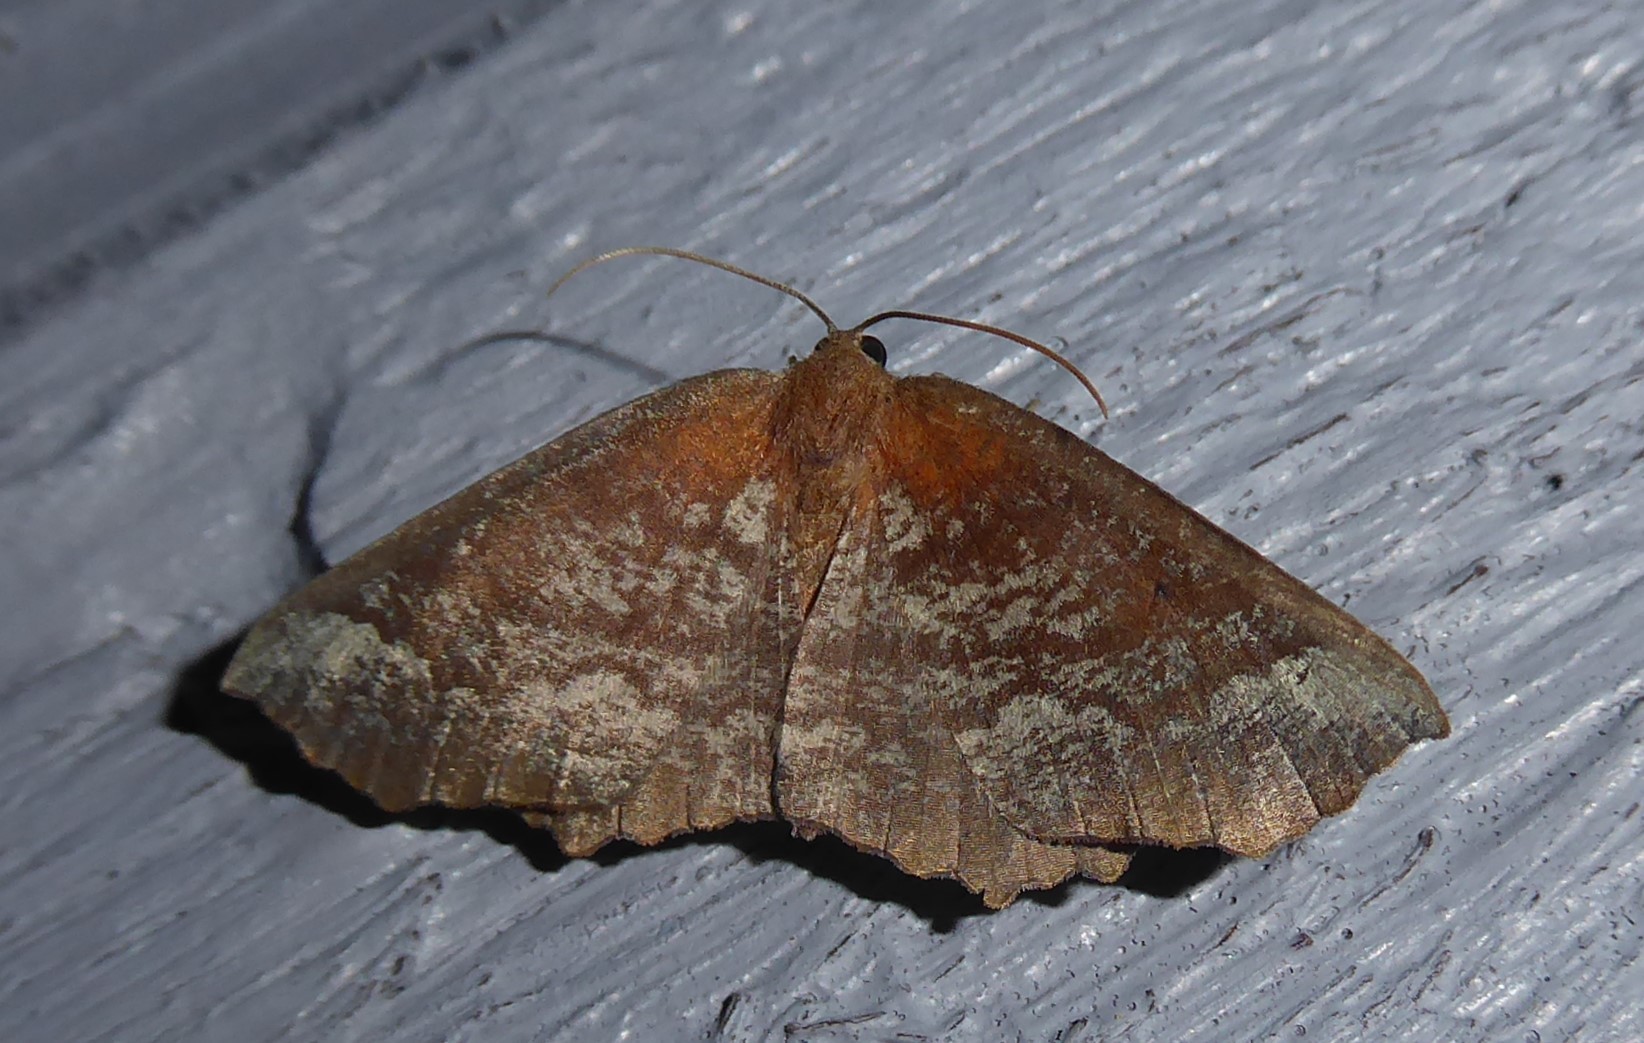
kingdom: Animalia
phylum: Arthropoda
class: Insecta
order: Lepidoptera
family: Geometridae
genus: Xyridacma
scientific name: Xyridacma ustaria
